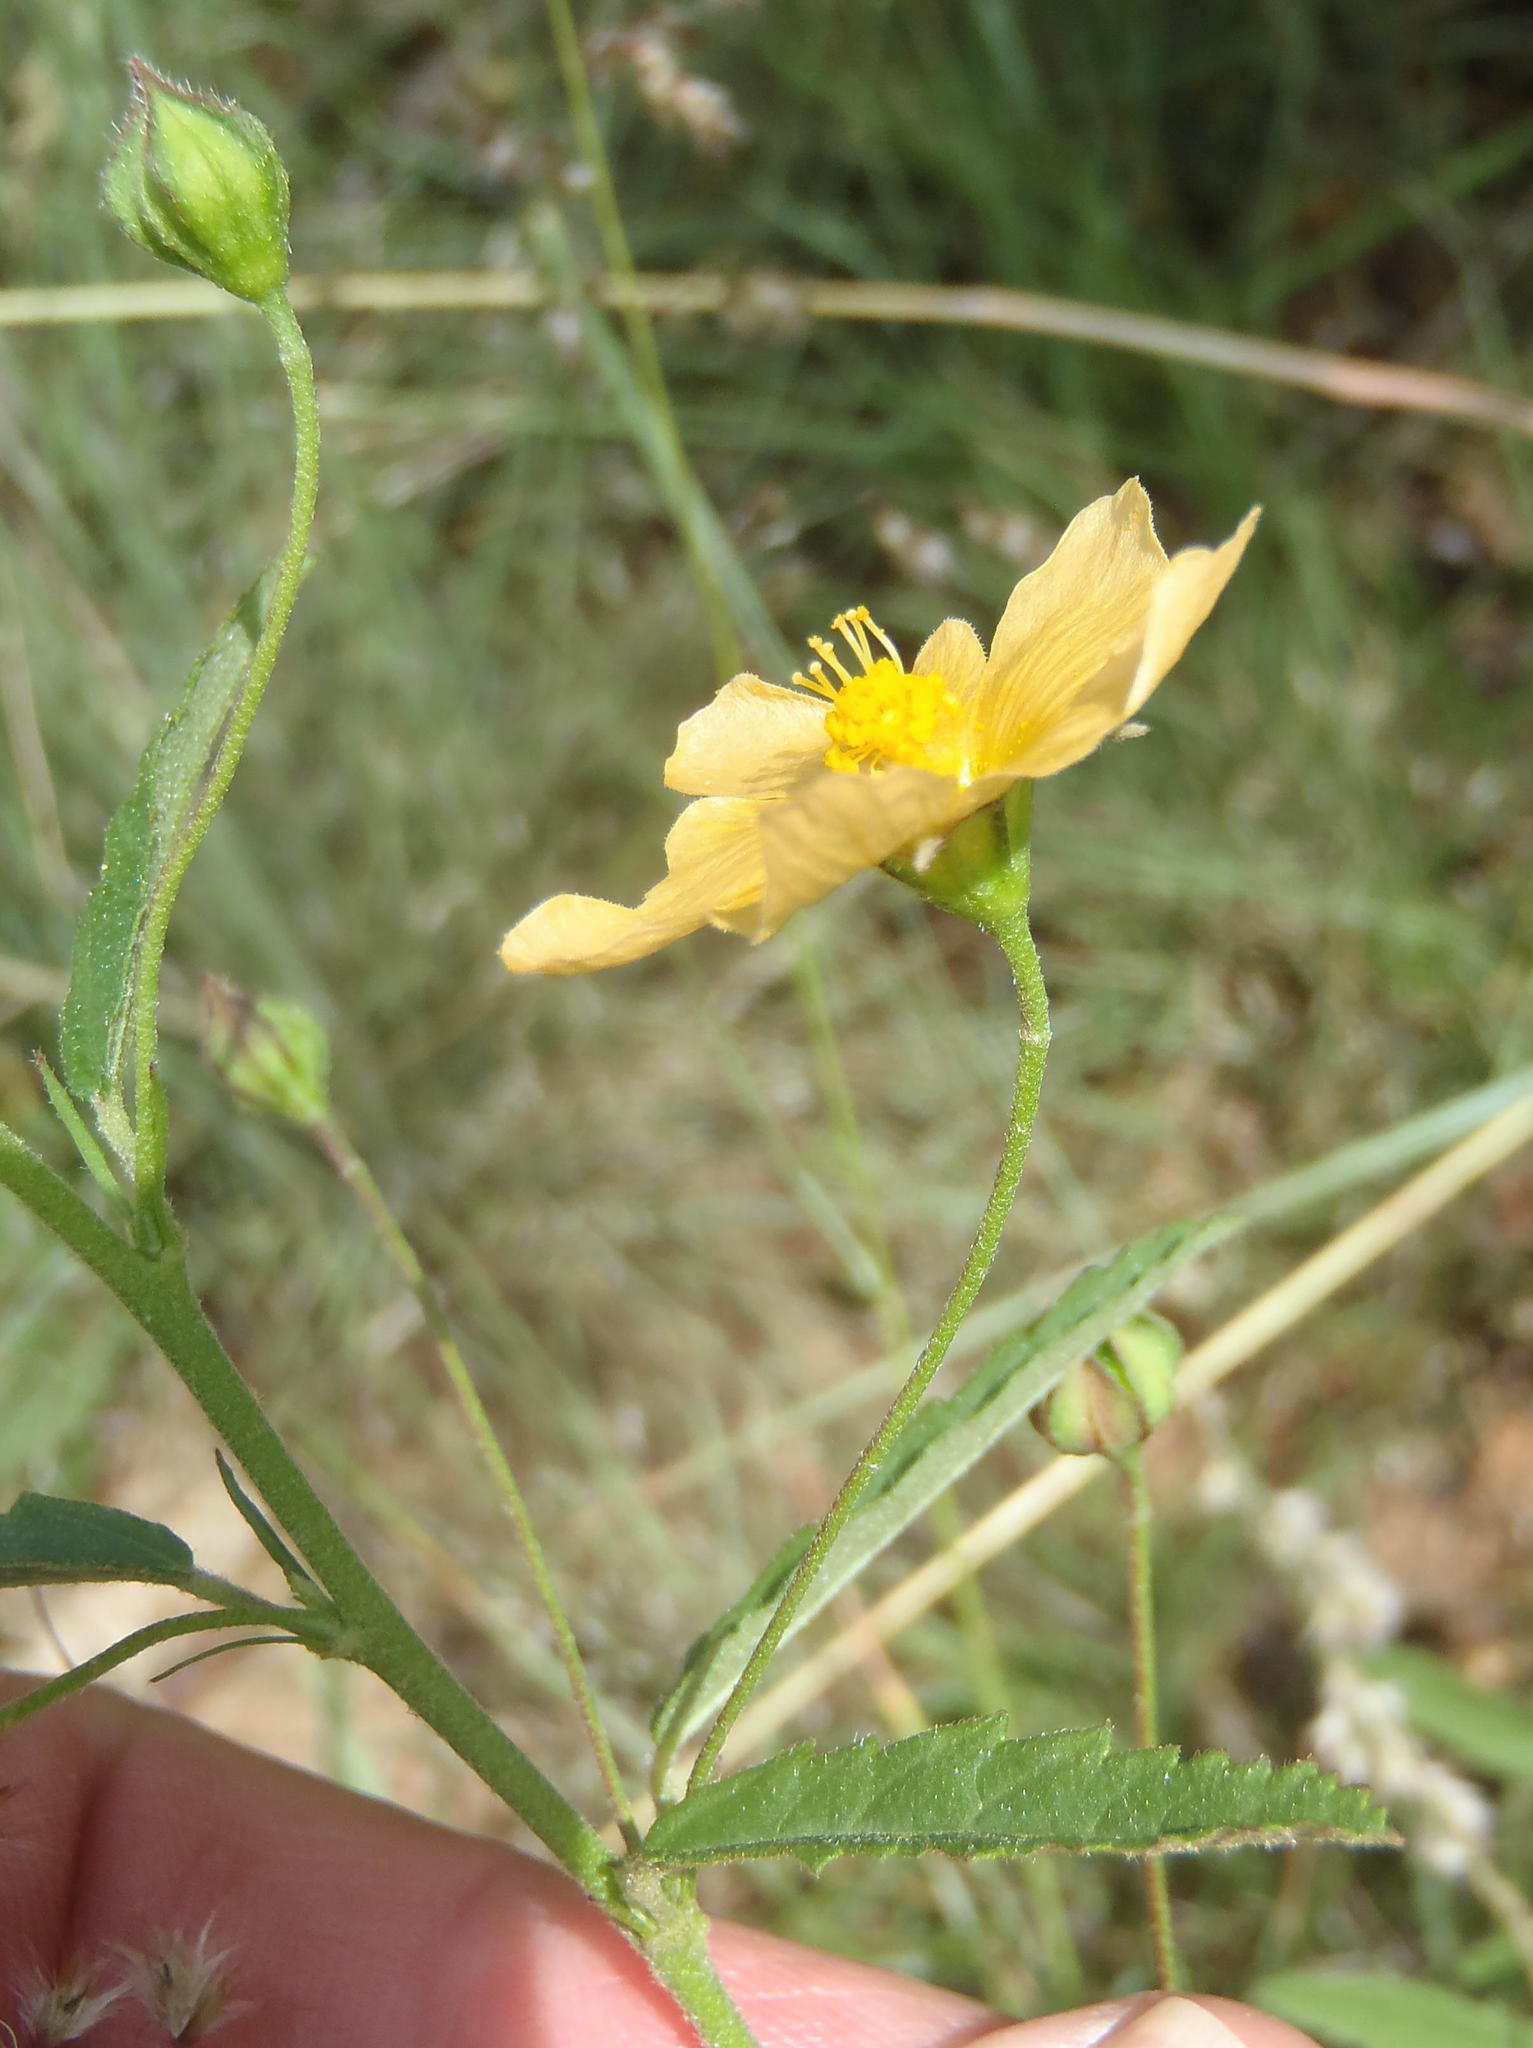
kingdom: Plantae
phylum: Tracheophyta
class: Magnoliopsida
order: Malvales
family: Malvaceae
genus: Sida
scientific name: Sida lancifolia
